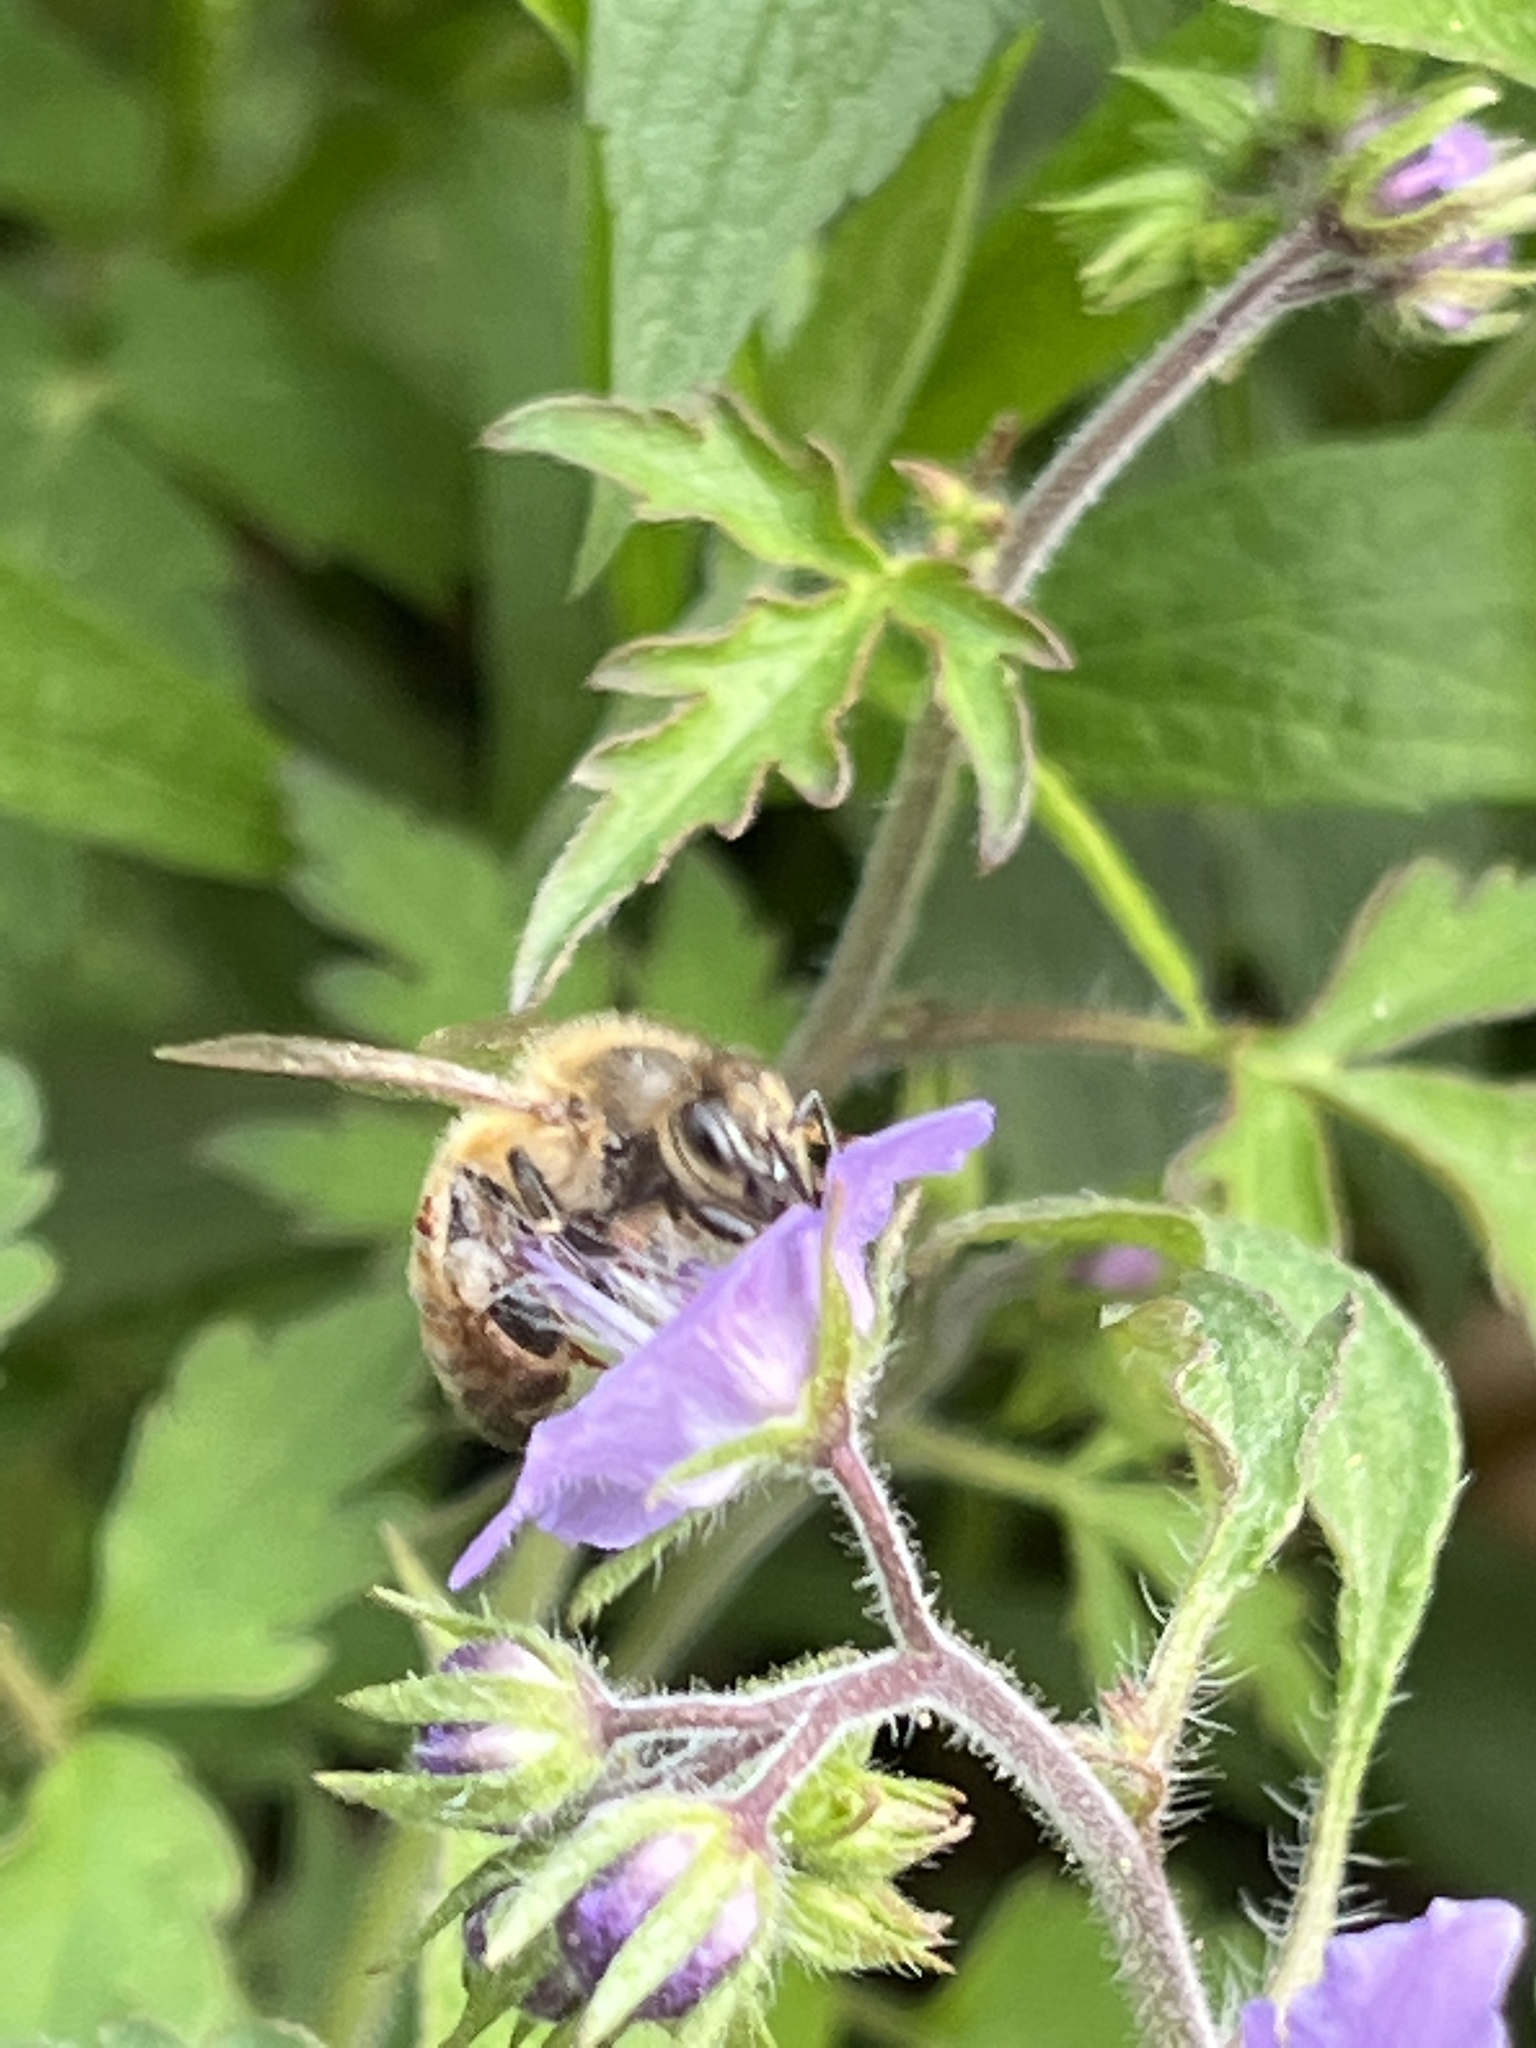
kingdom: Animalia
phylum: Arthropoda
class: Insecta
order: Hymenoptera
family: Apidae
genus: Apis
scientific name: Apis mellifera
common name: Honey bee
